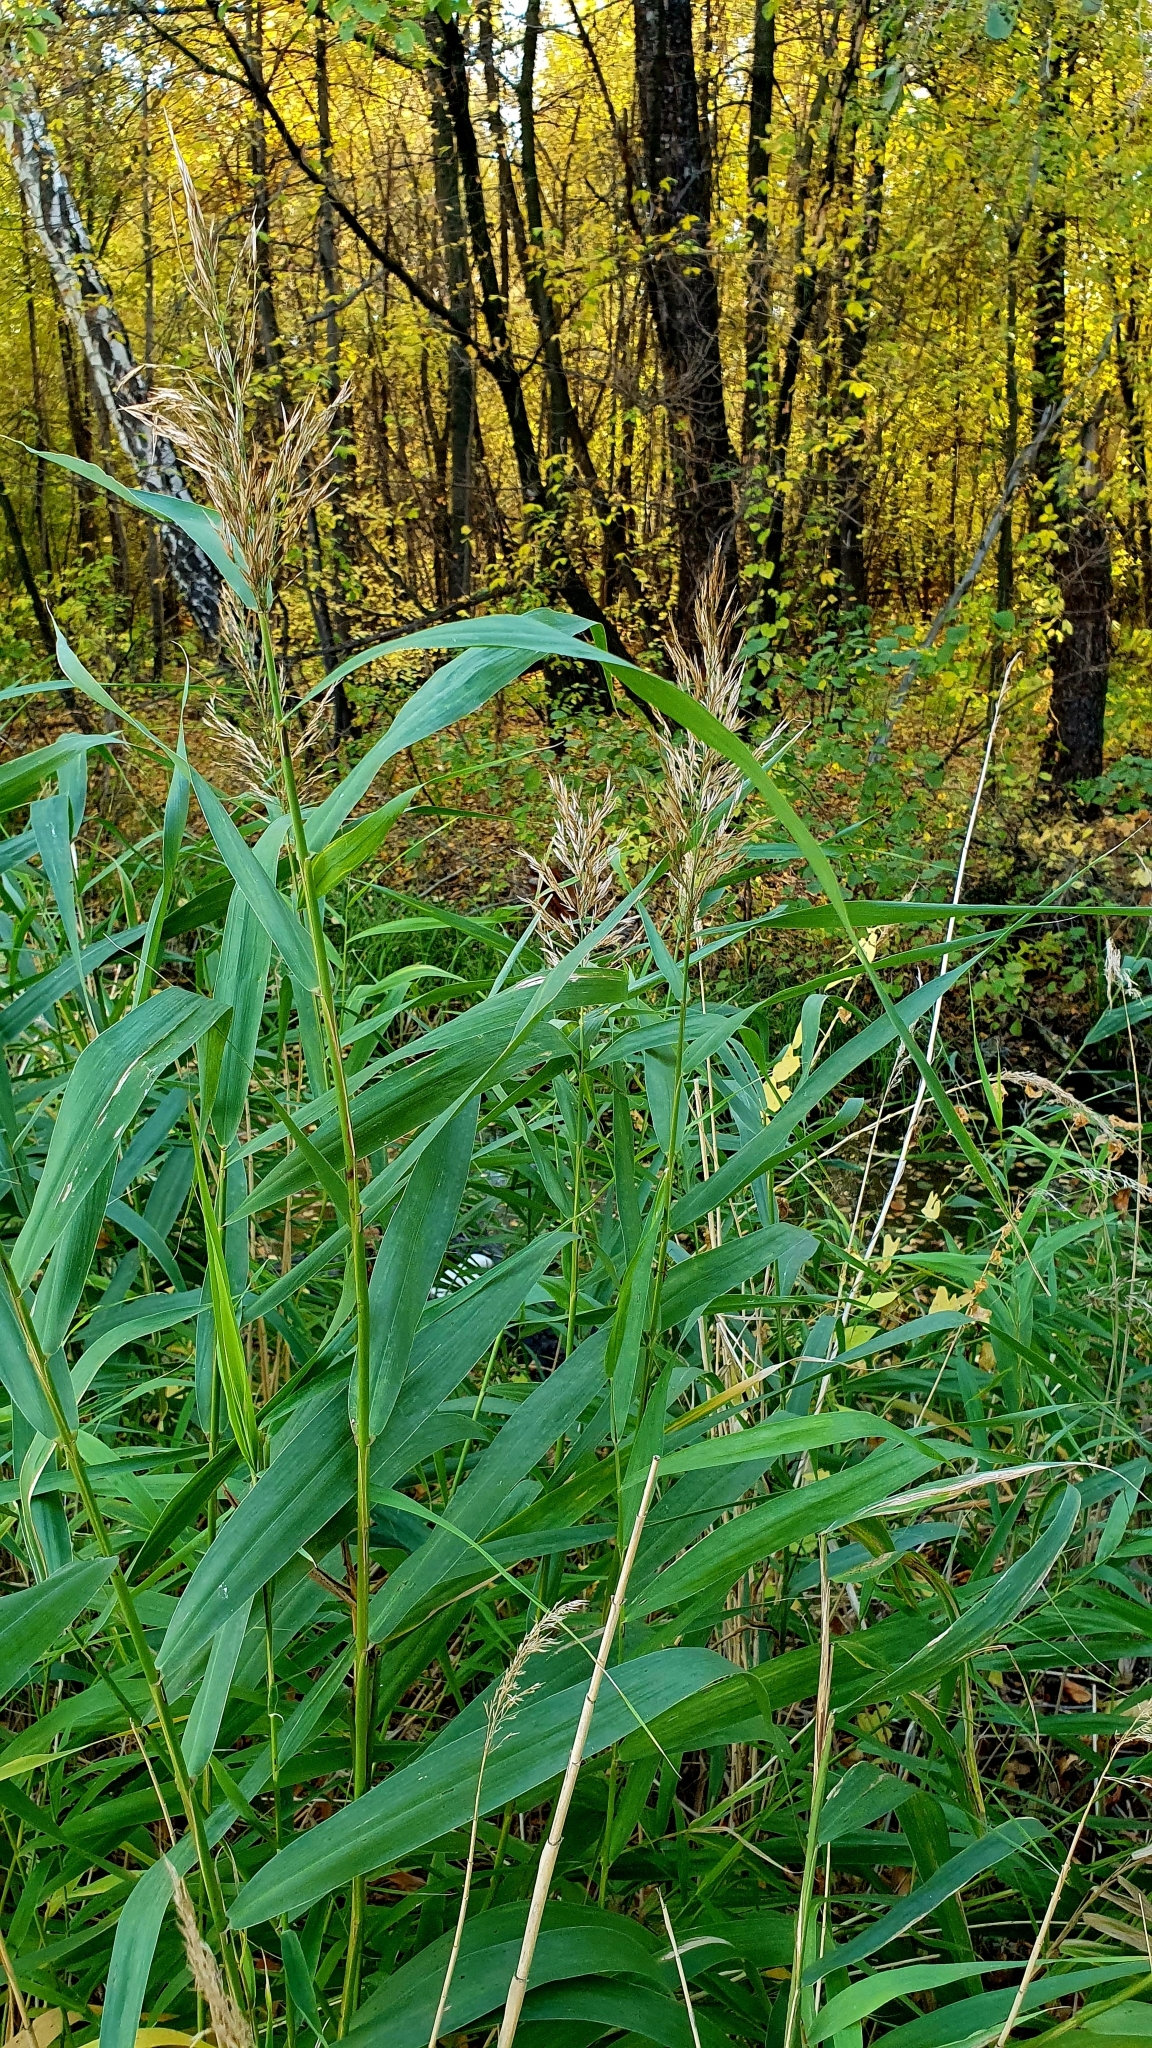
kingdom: Plantae
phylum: Tracheophyta
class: Liliopsida
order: Poales
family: Poaceae
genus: Phragmites
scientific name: Phragmites australis
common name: Common reed
